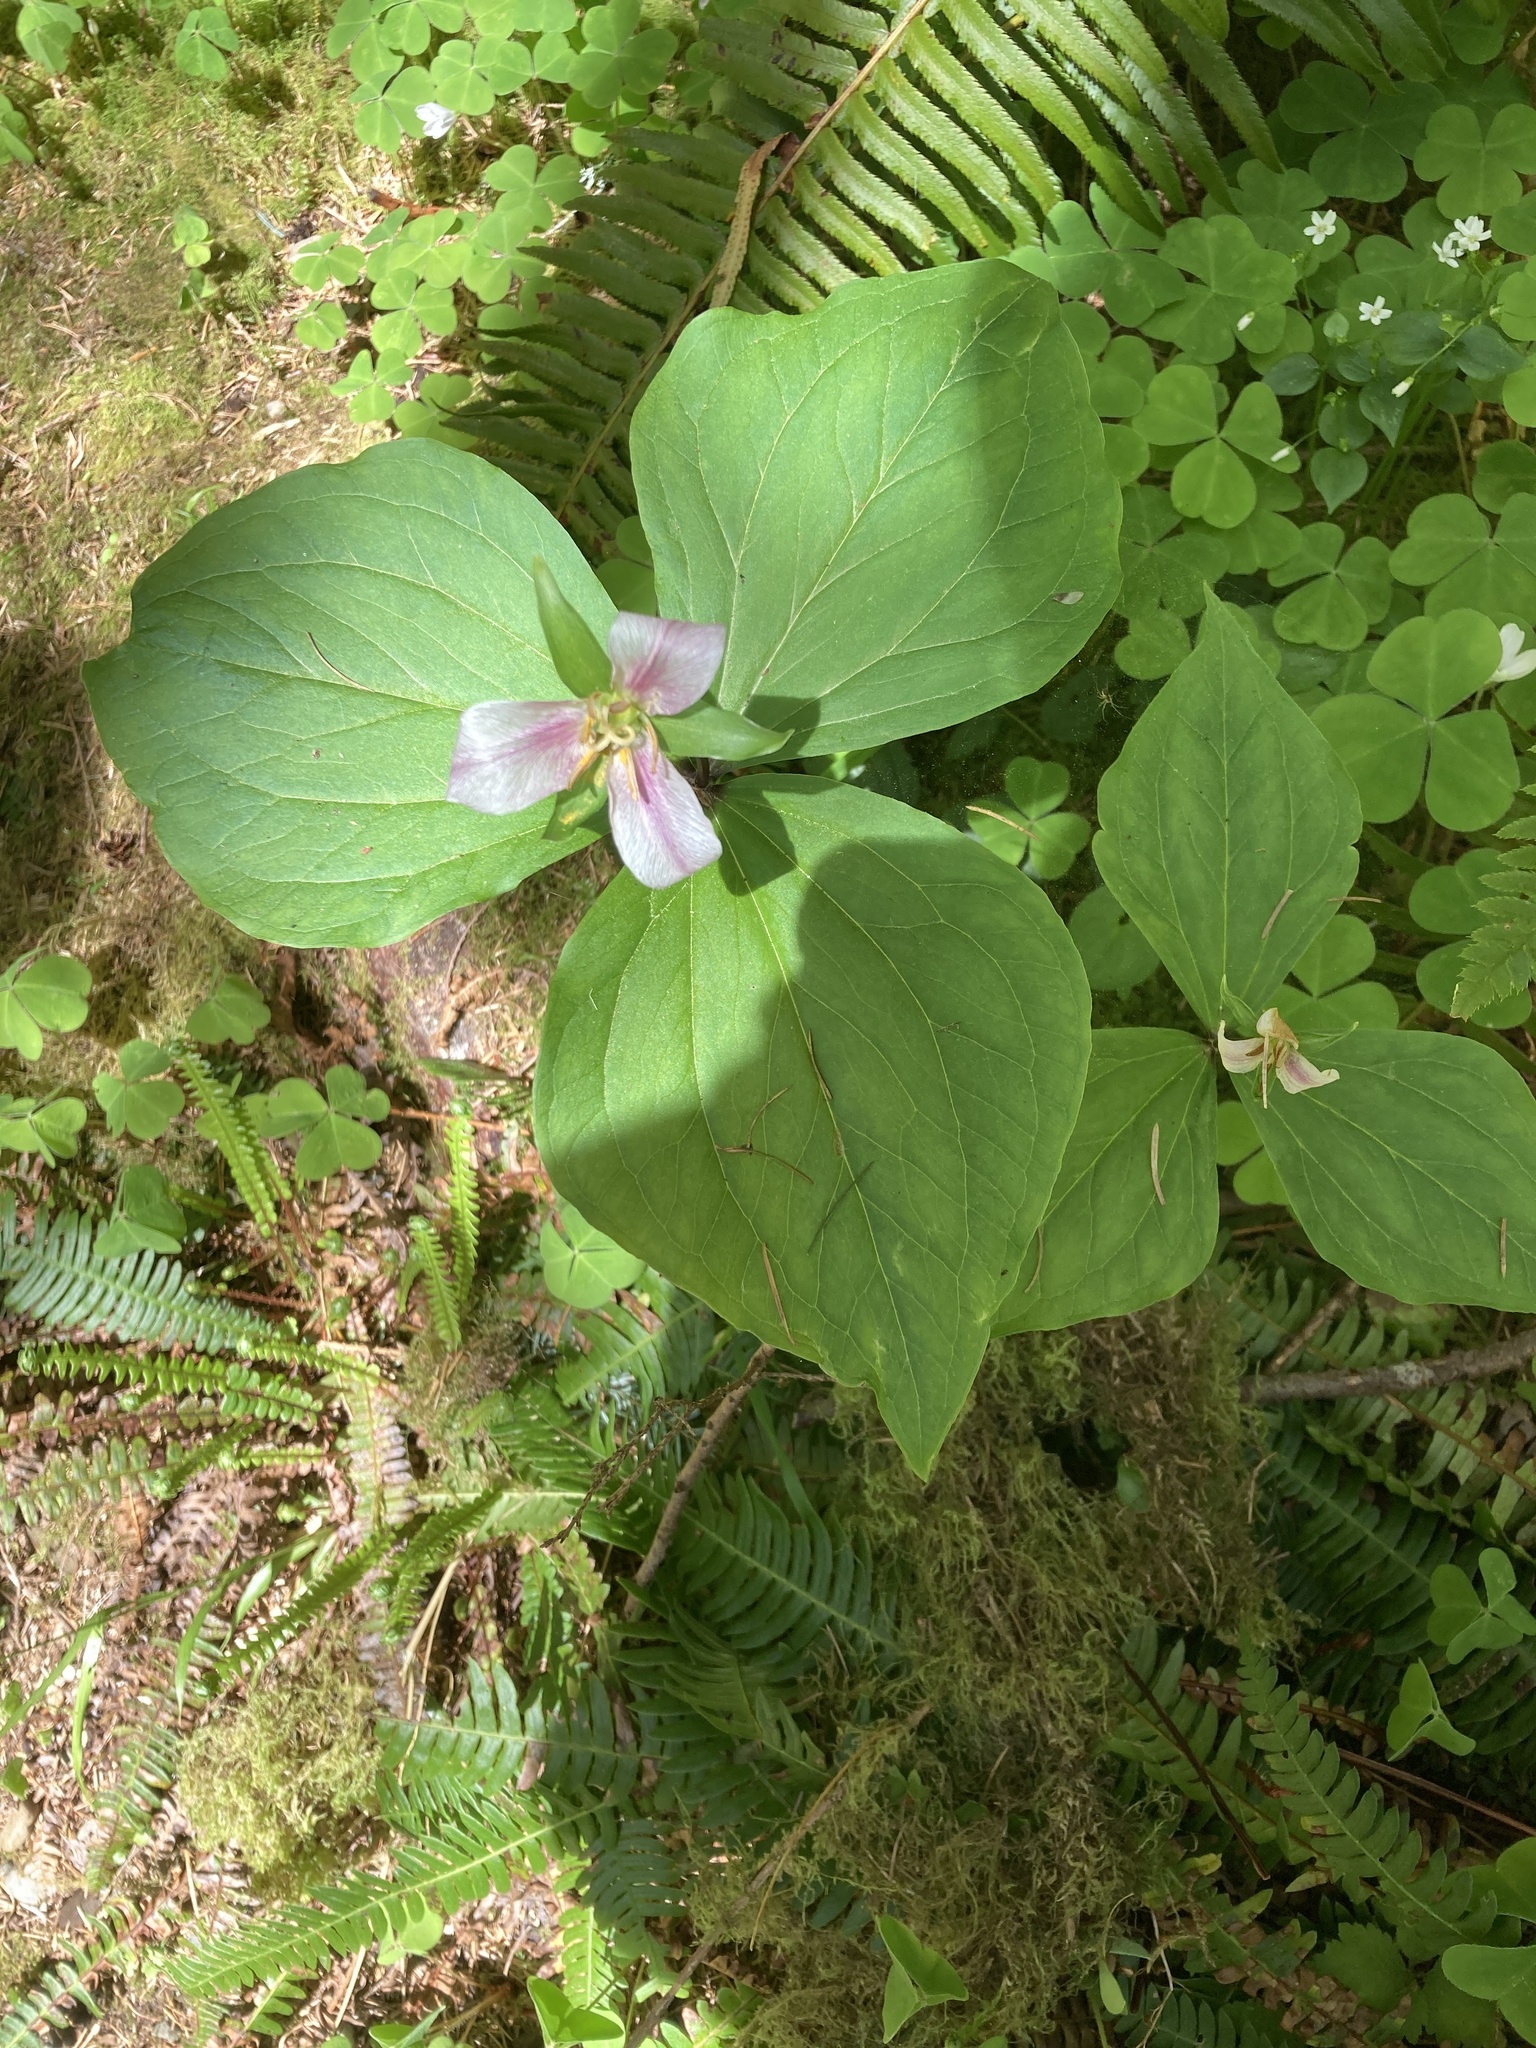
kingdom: Plantae
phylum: Tracheophyta
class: Liliopsida
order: Liliales
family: Melanthiaceae
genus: Trillium
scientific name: Trillium ovatum
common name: Pacific trillium
